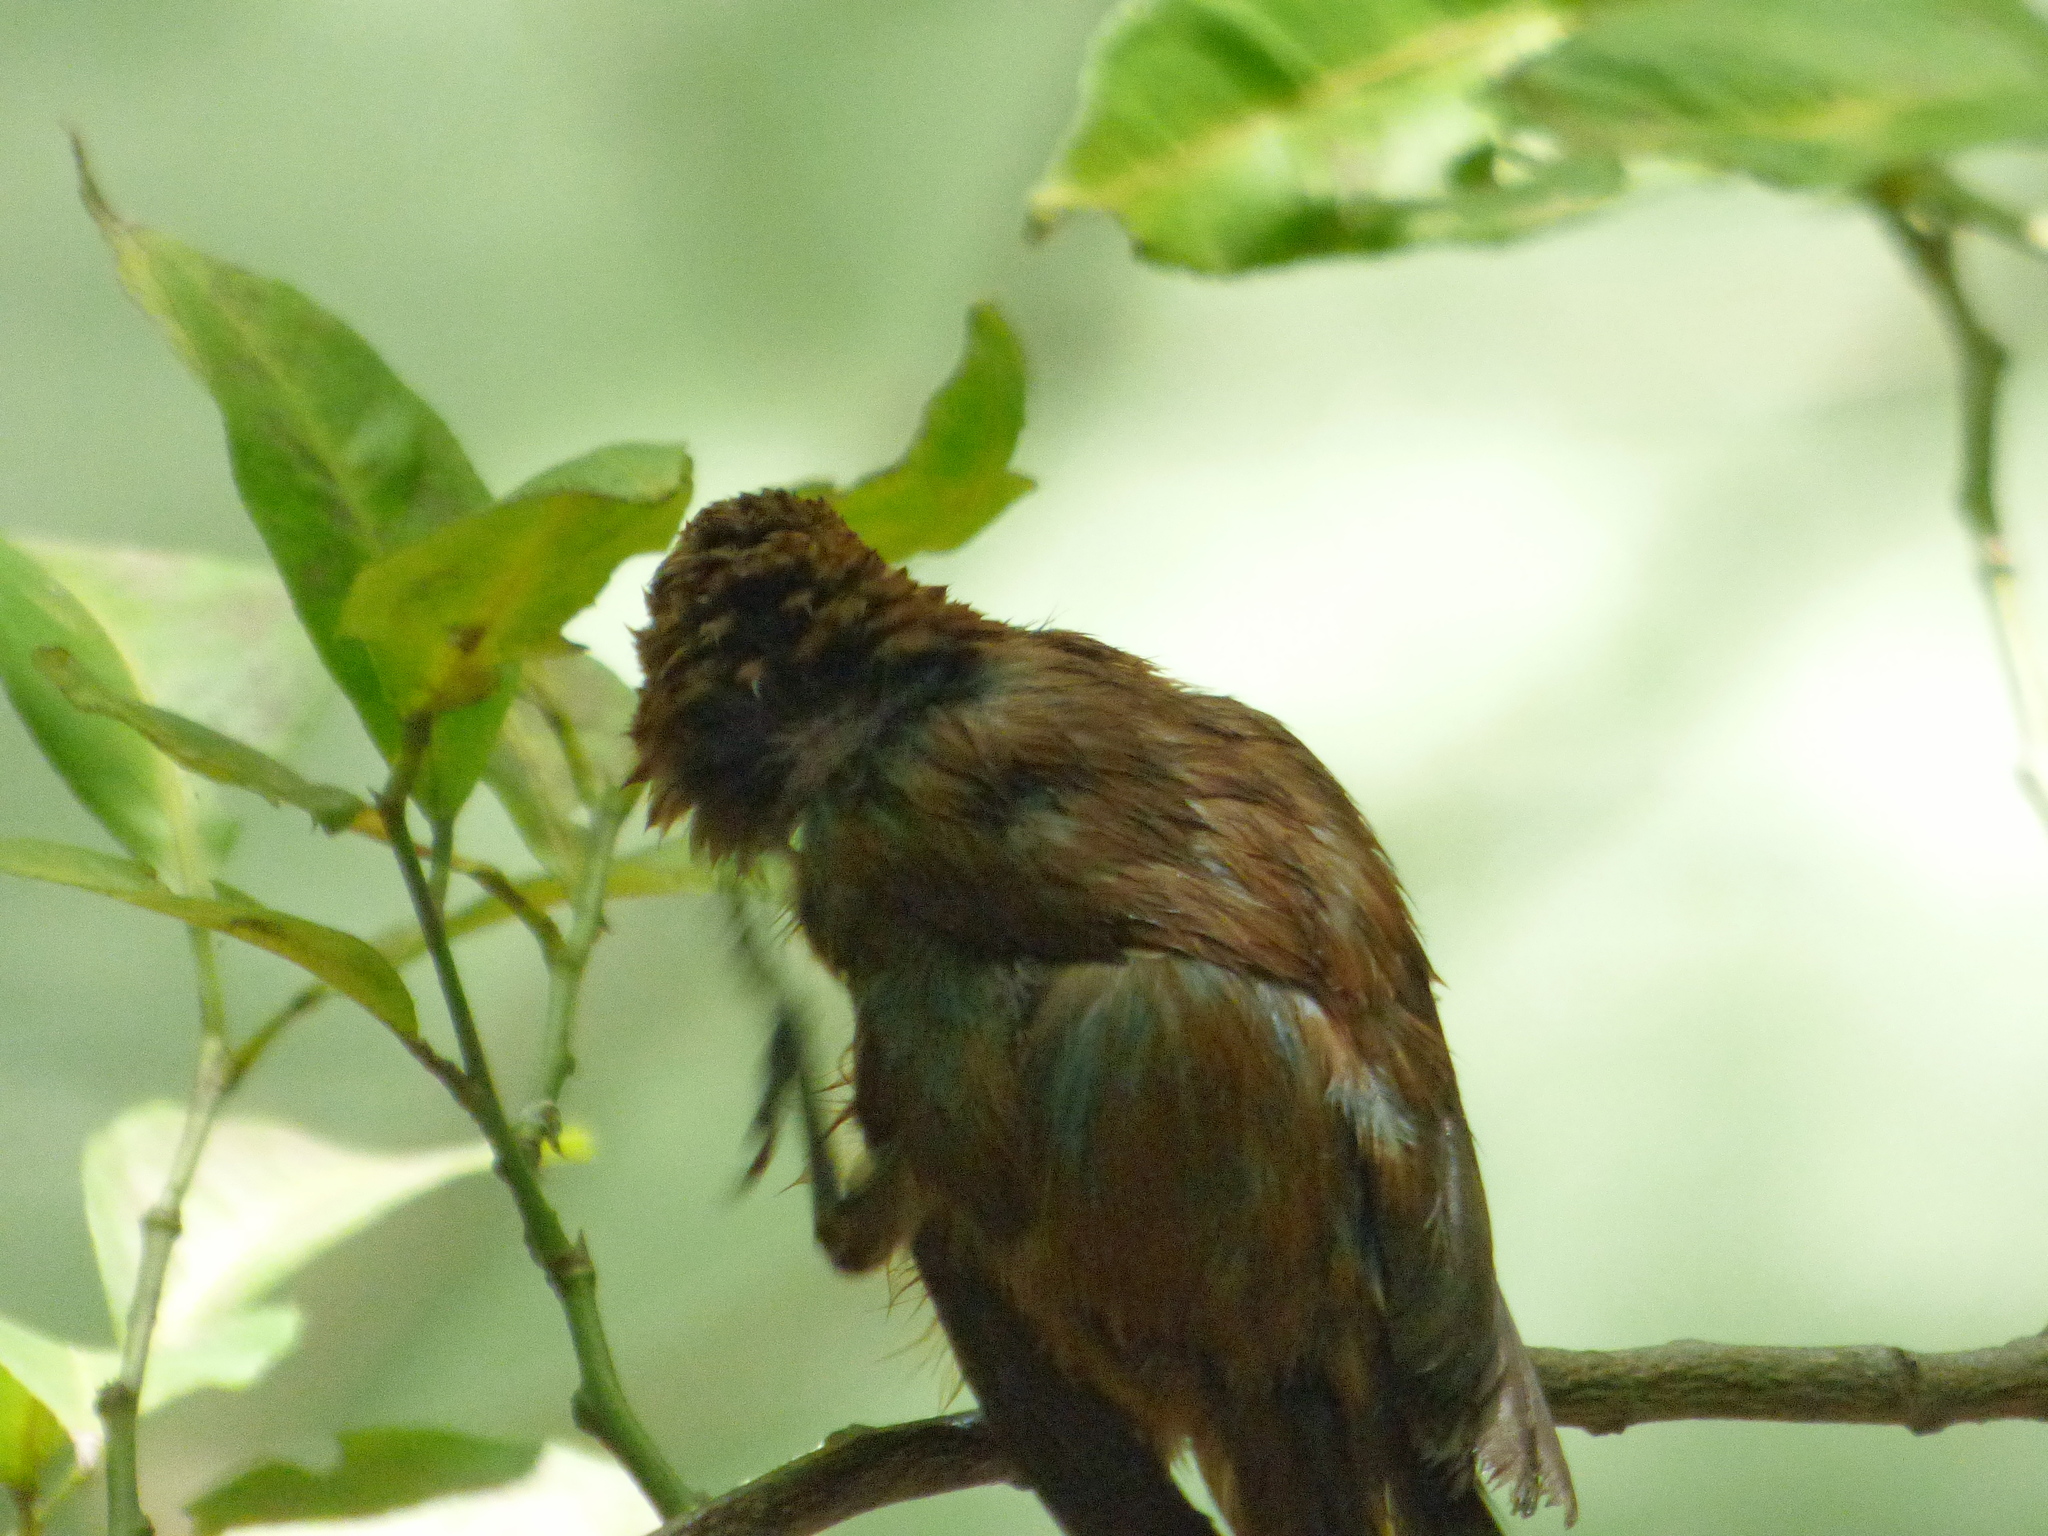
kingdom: Animalia
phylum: Chordata
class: Aves
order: Passeriformes
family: Cardinalidae
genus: Cyanoloxia
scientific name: Cyanoloxia brissonii
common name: Ultramarine grosbeak
